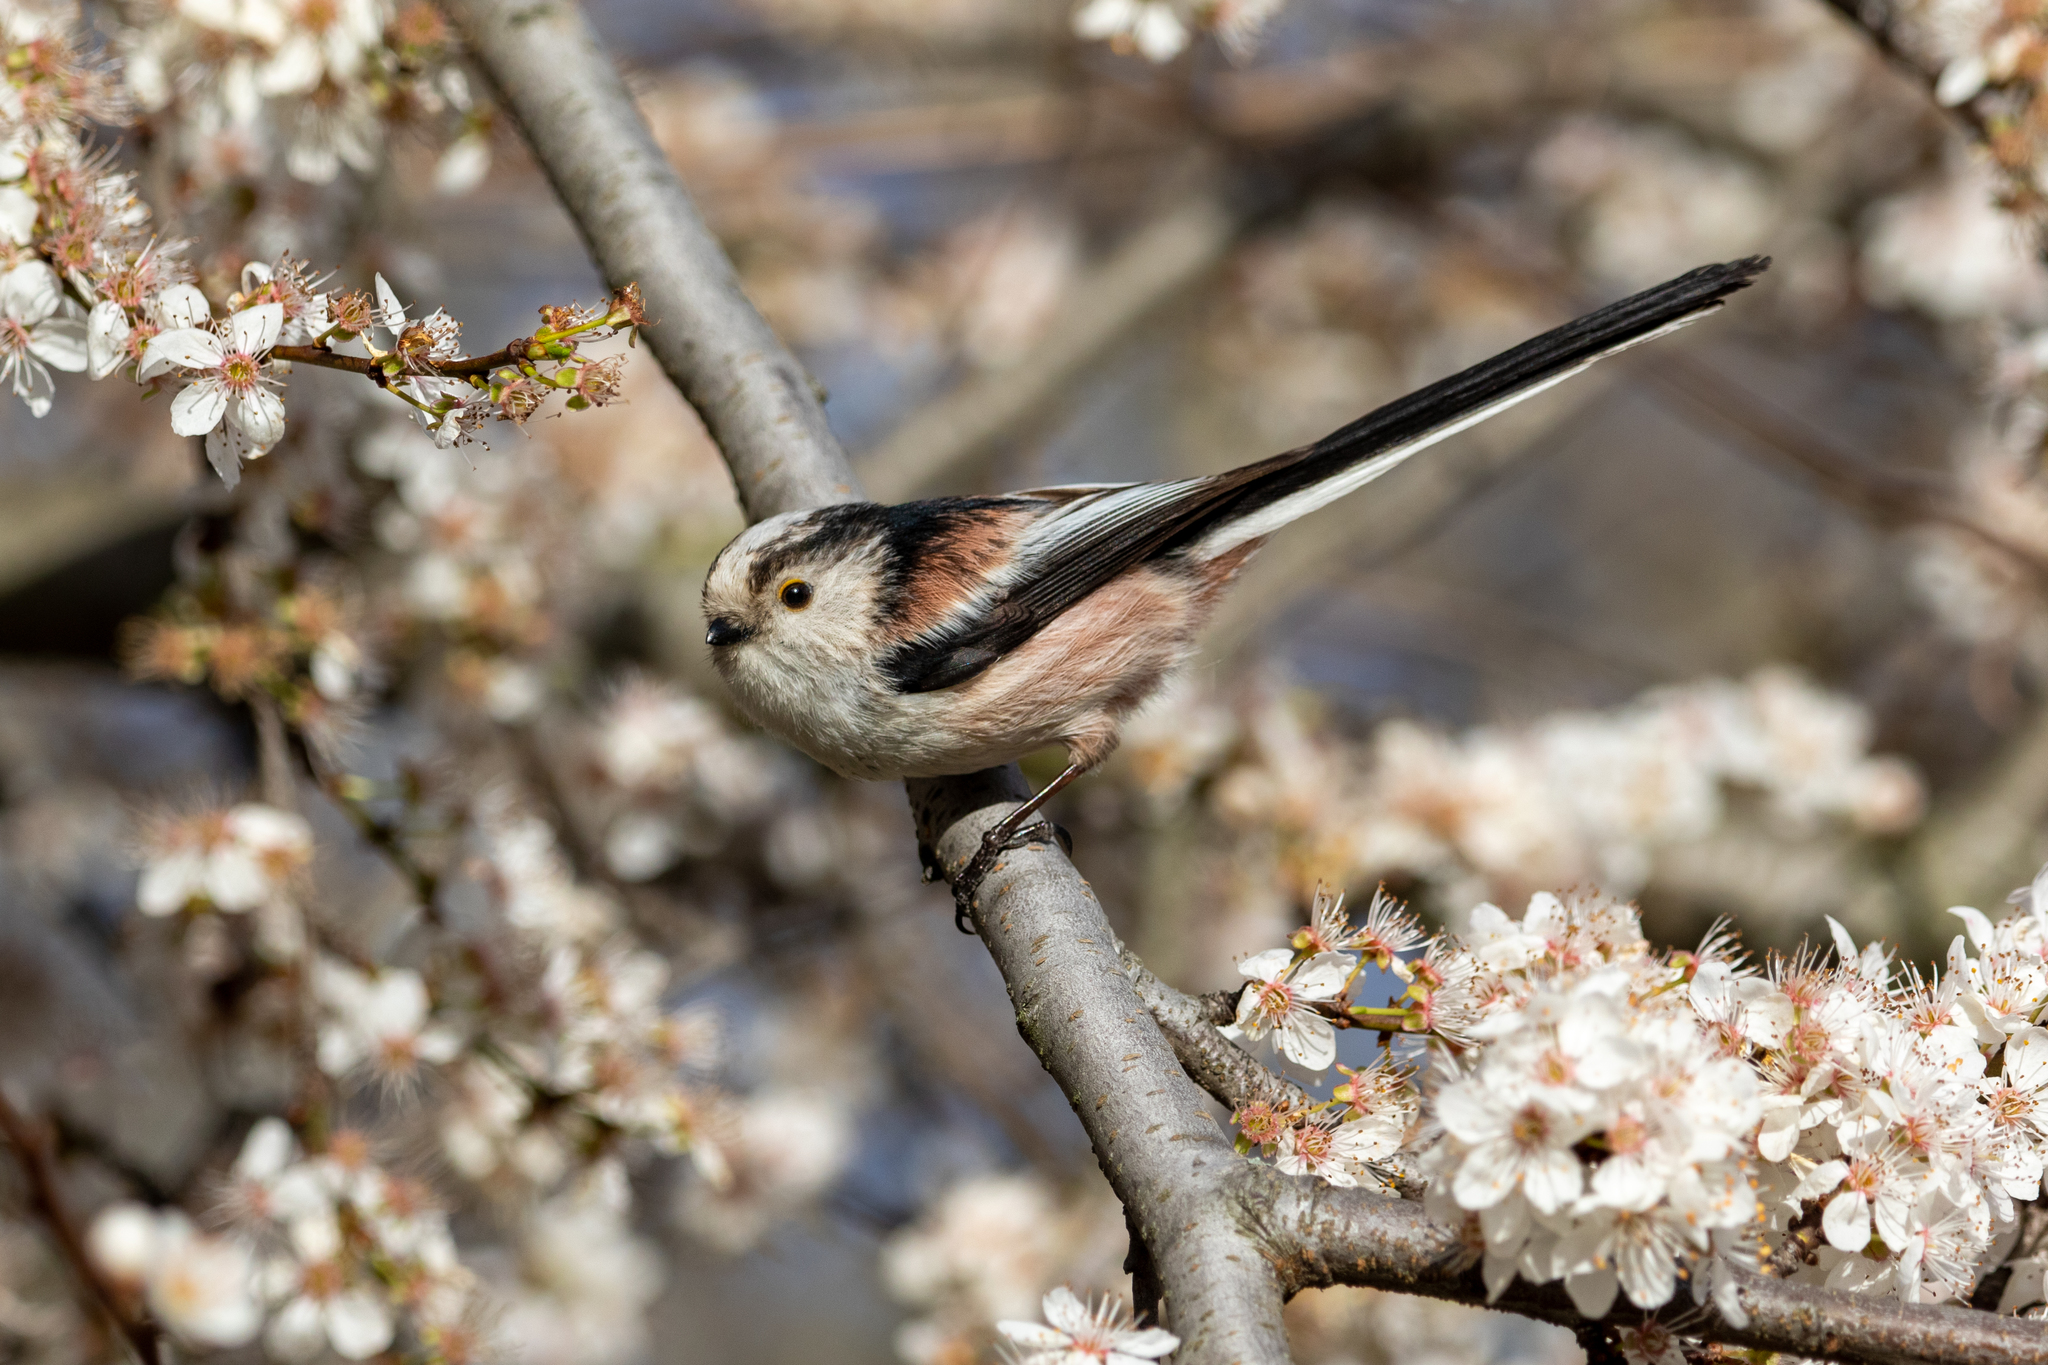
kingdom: Animalia
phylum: Chordata
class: Aves
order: Passeriformes
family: Aegithalidae
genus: Aegithalos
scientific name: Aegithalos caudatus
